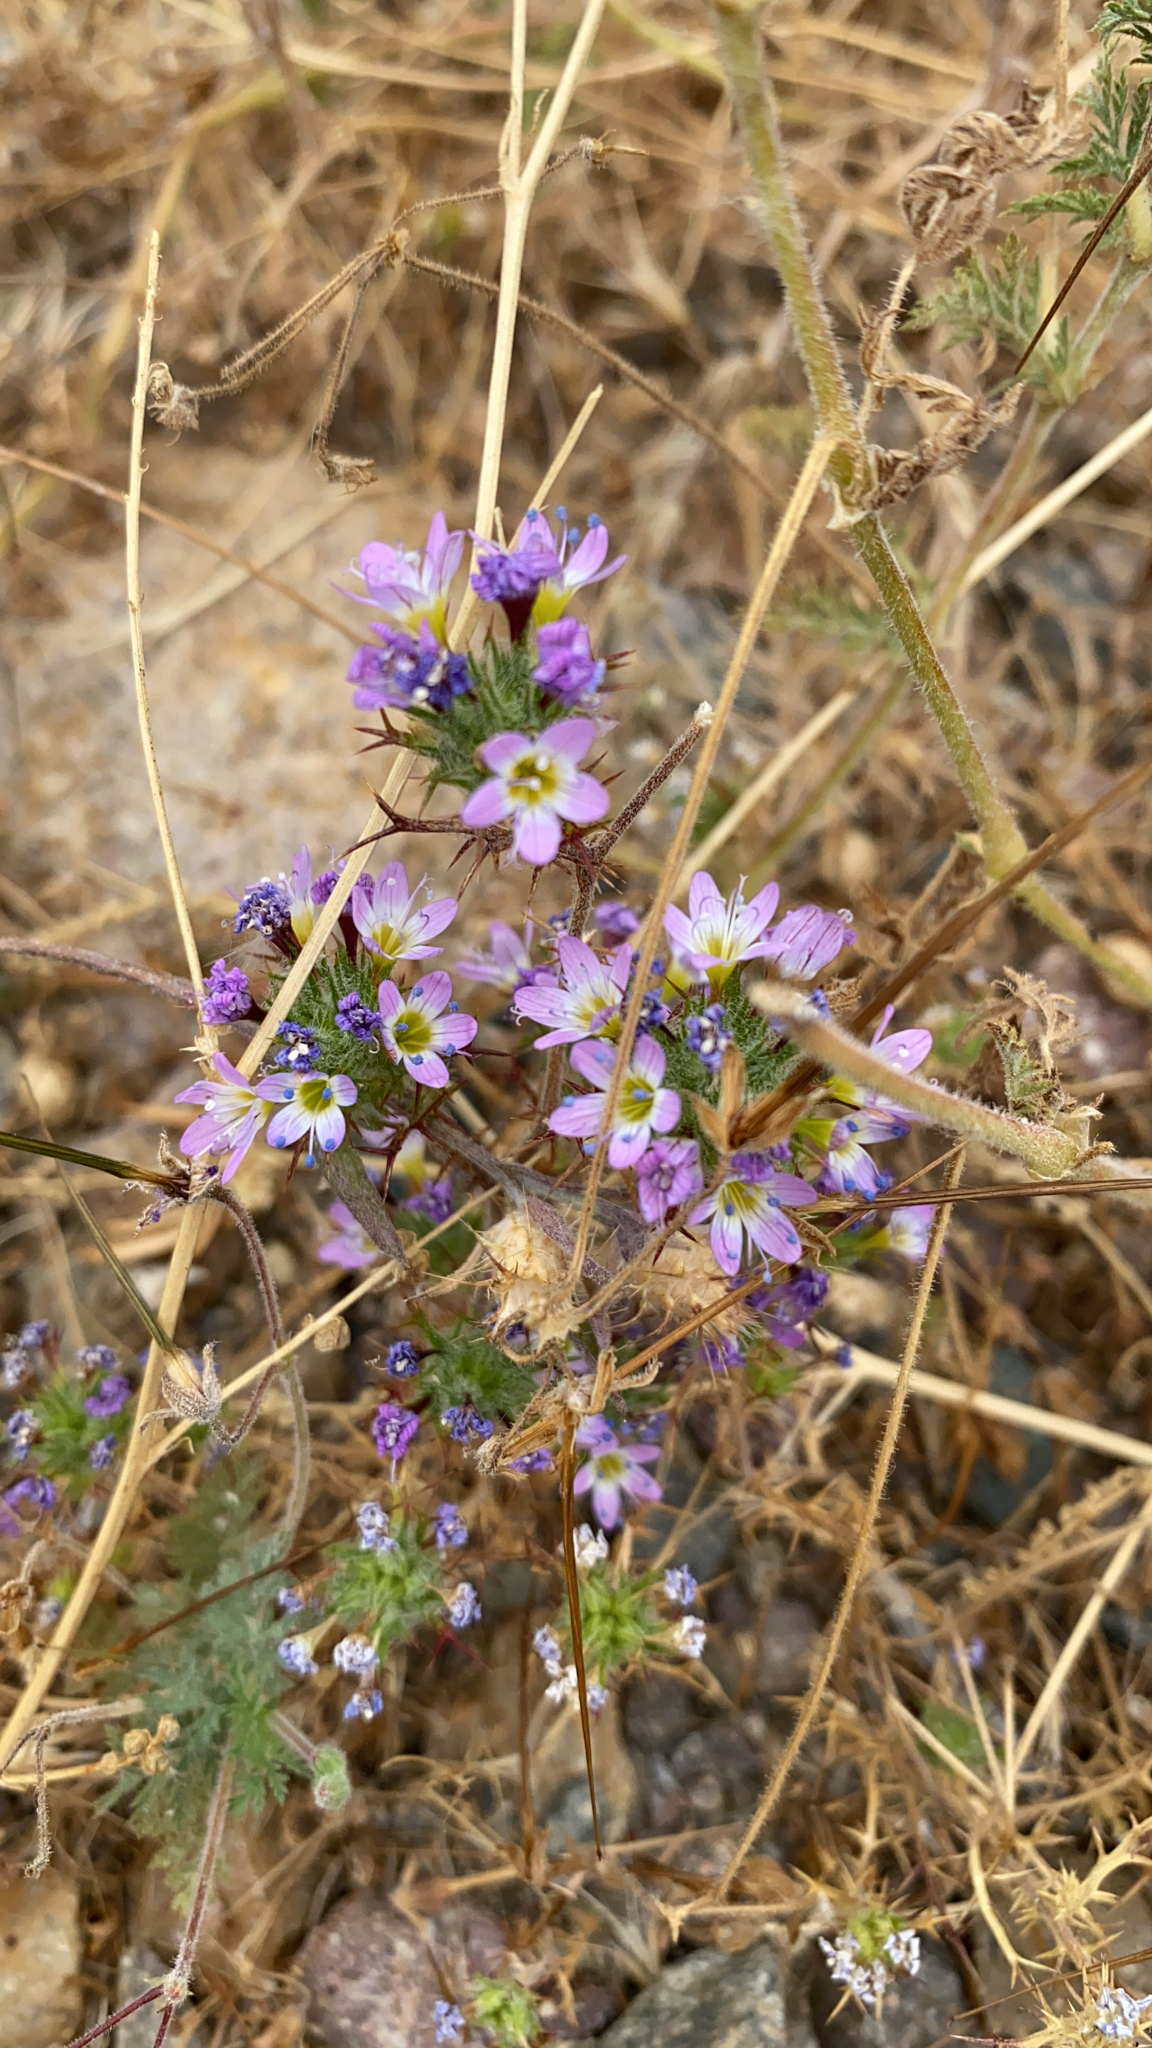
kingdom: Plantae
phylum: Tracheophyta
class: Magnoliopsida
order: Ericales
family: Polemoniaceae
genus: Navarretia
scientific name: Navarretia hamata
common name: Hooked navarretia
